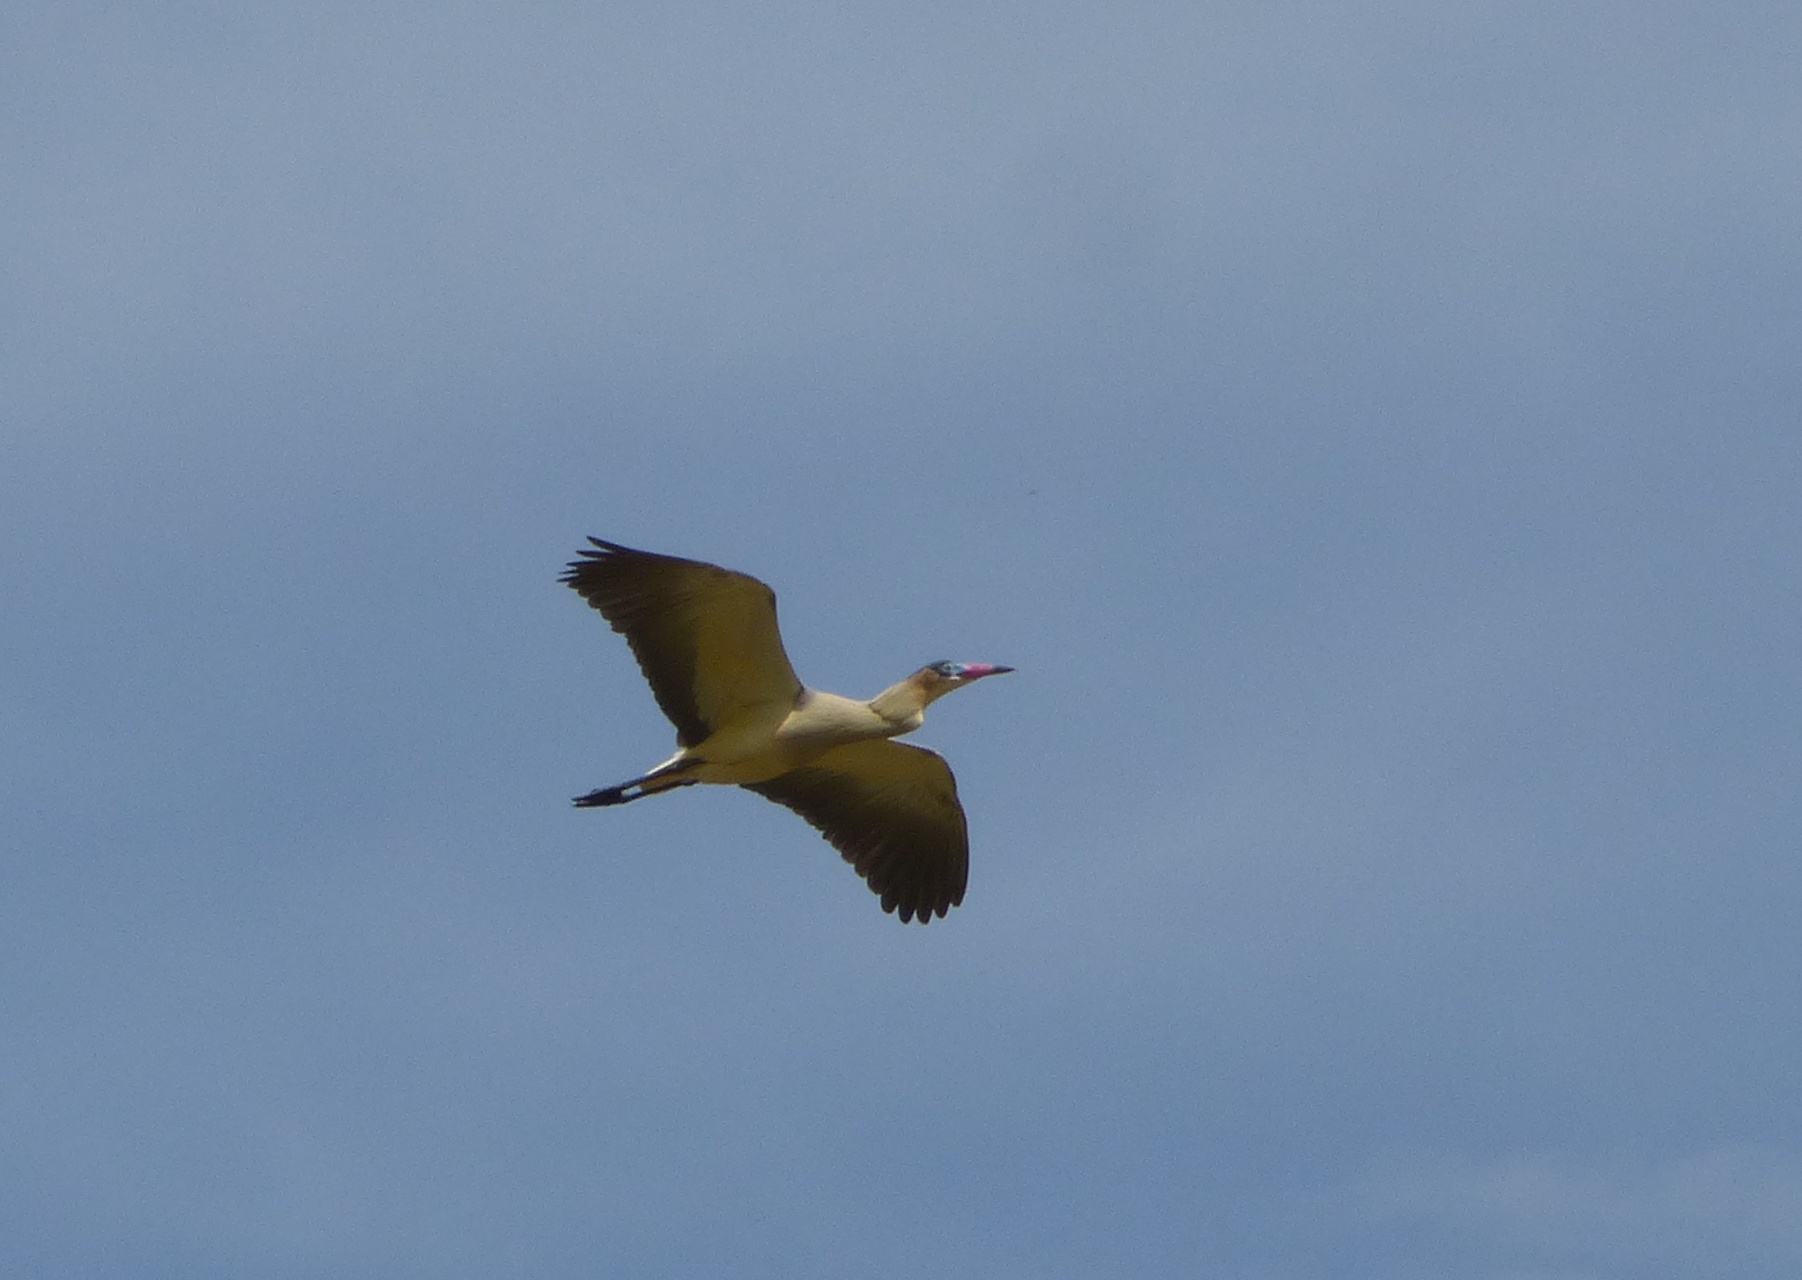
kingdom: Animalia
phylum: Chordata
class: Aves
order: Pelecaniformes
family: Ardeidae
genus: Syrigma
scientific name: Syrigma sibilatrix
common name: Whistling heron
